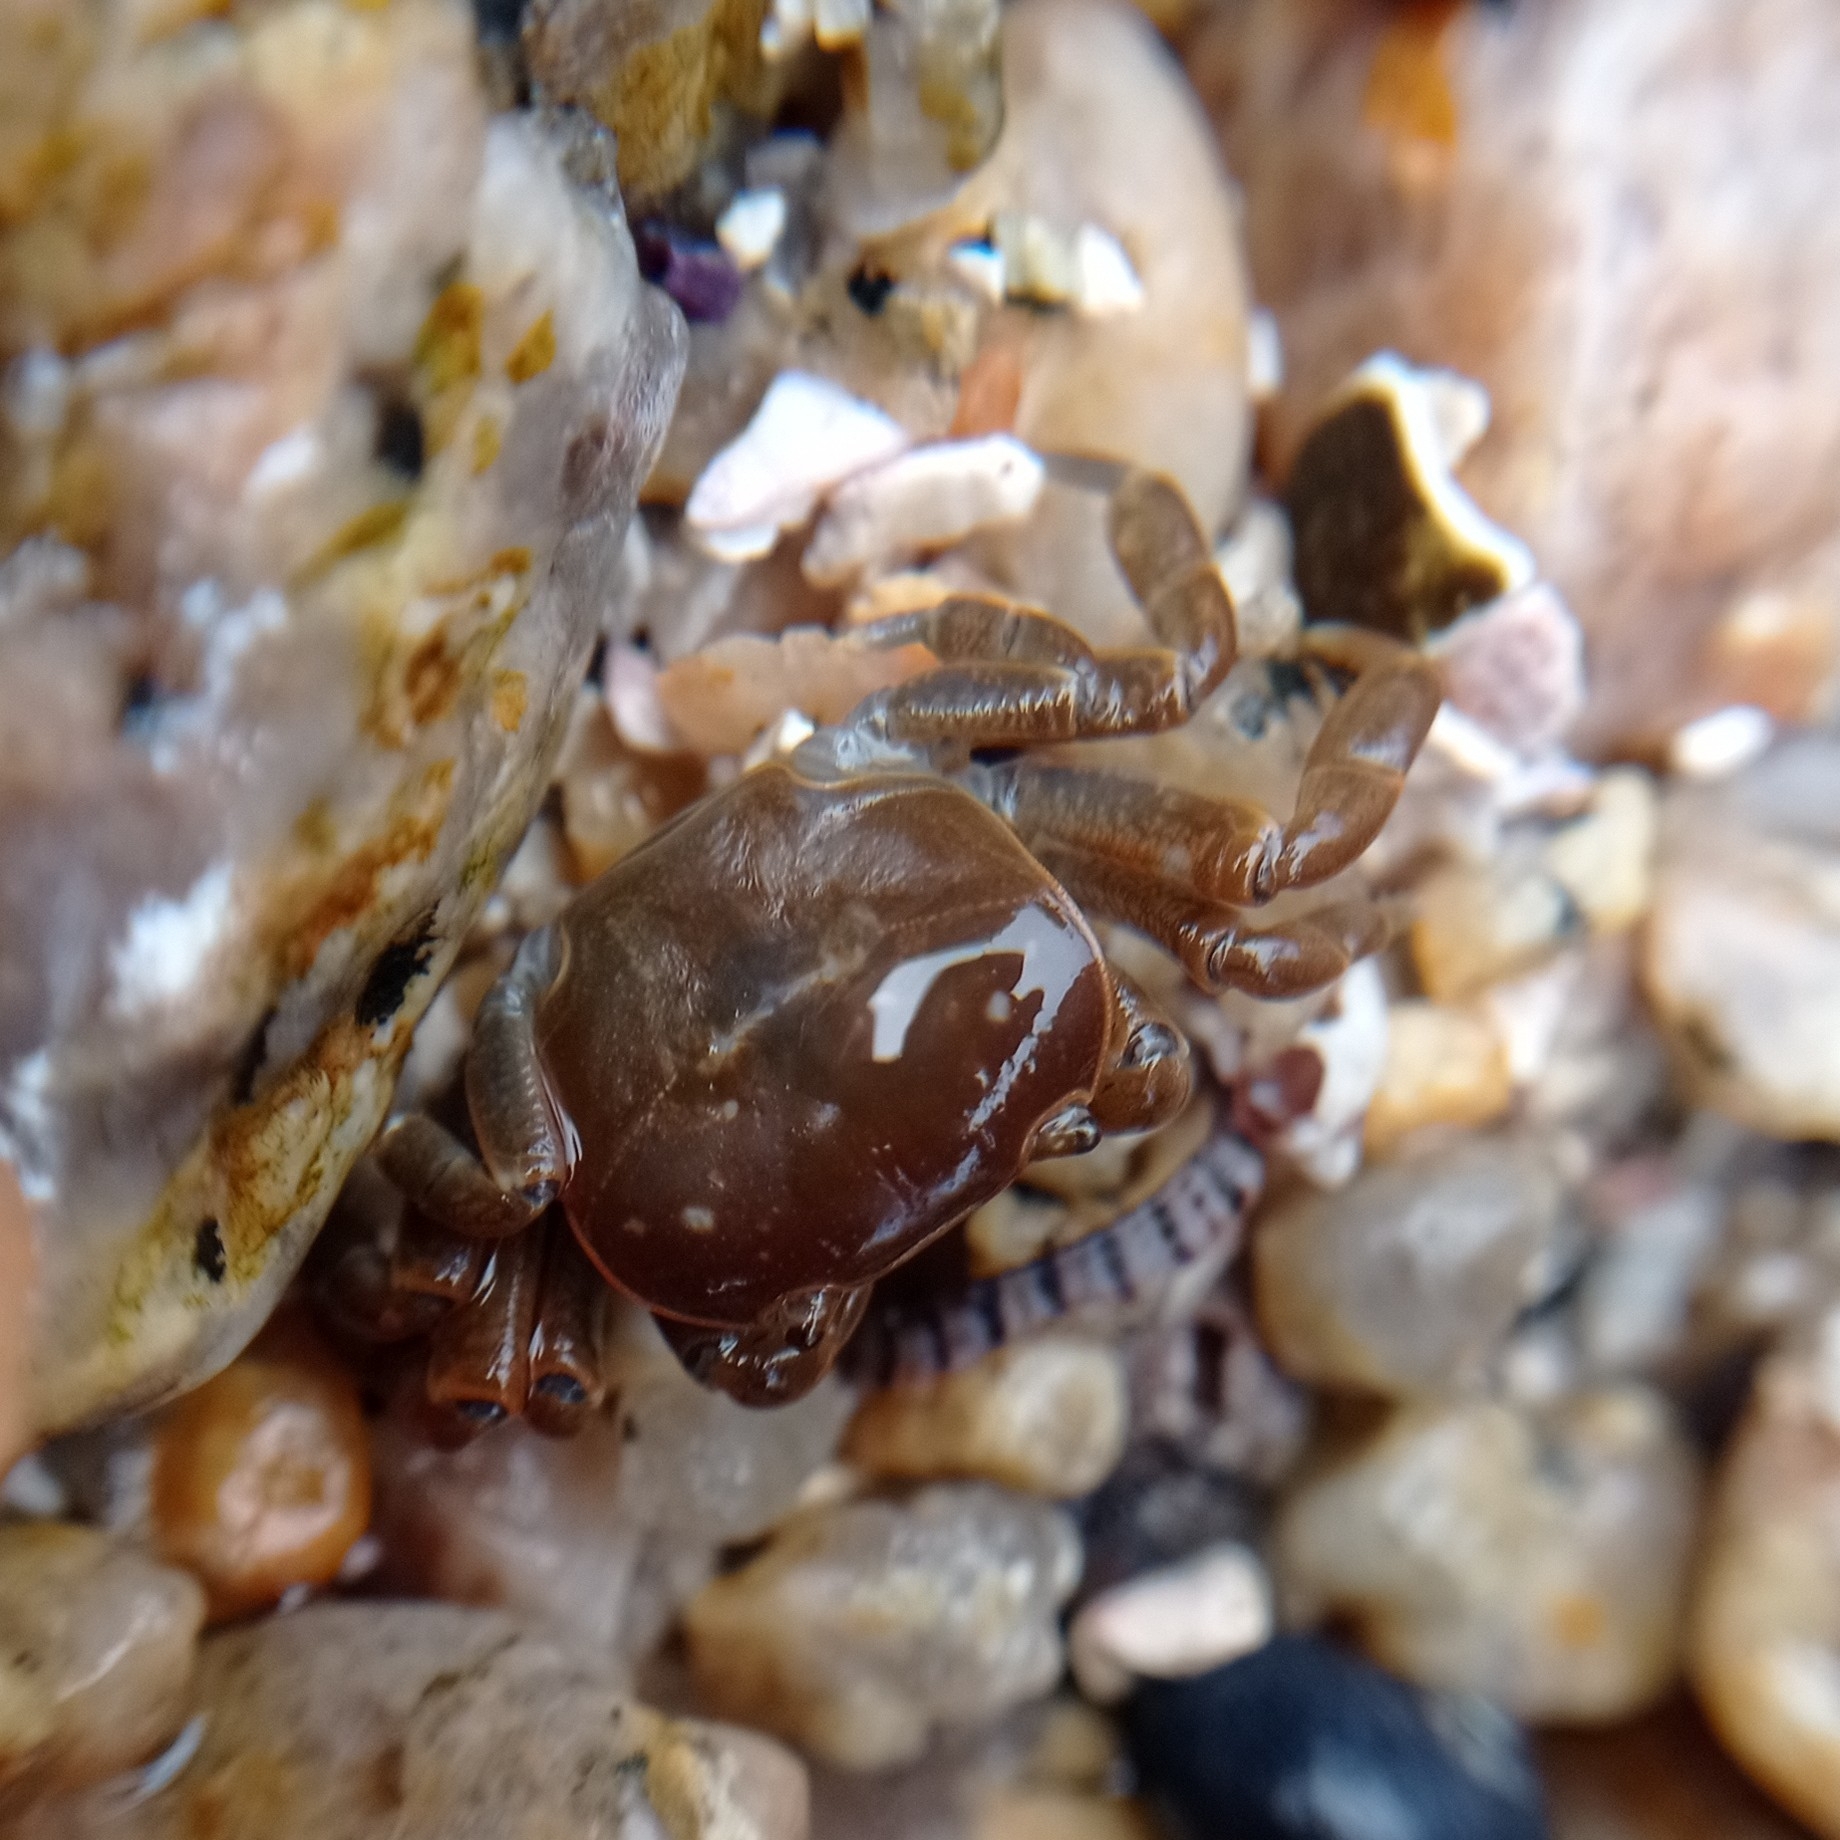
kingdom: Animalia
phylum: Arthropoda
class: Malacostraca
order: Decapoda
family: Varunidae
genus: Cyclograpsus
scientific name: Cyclograpsus cinereus
